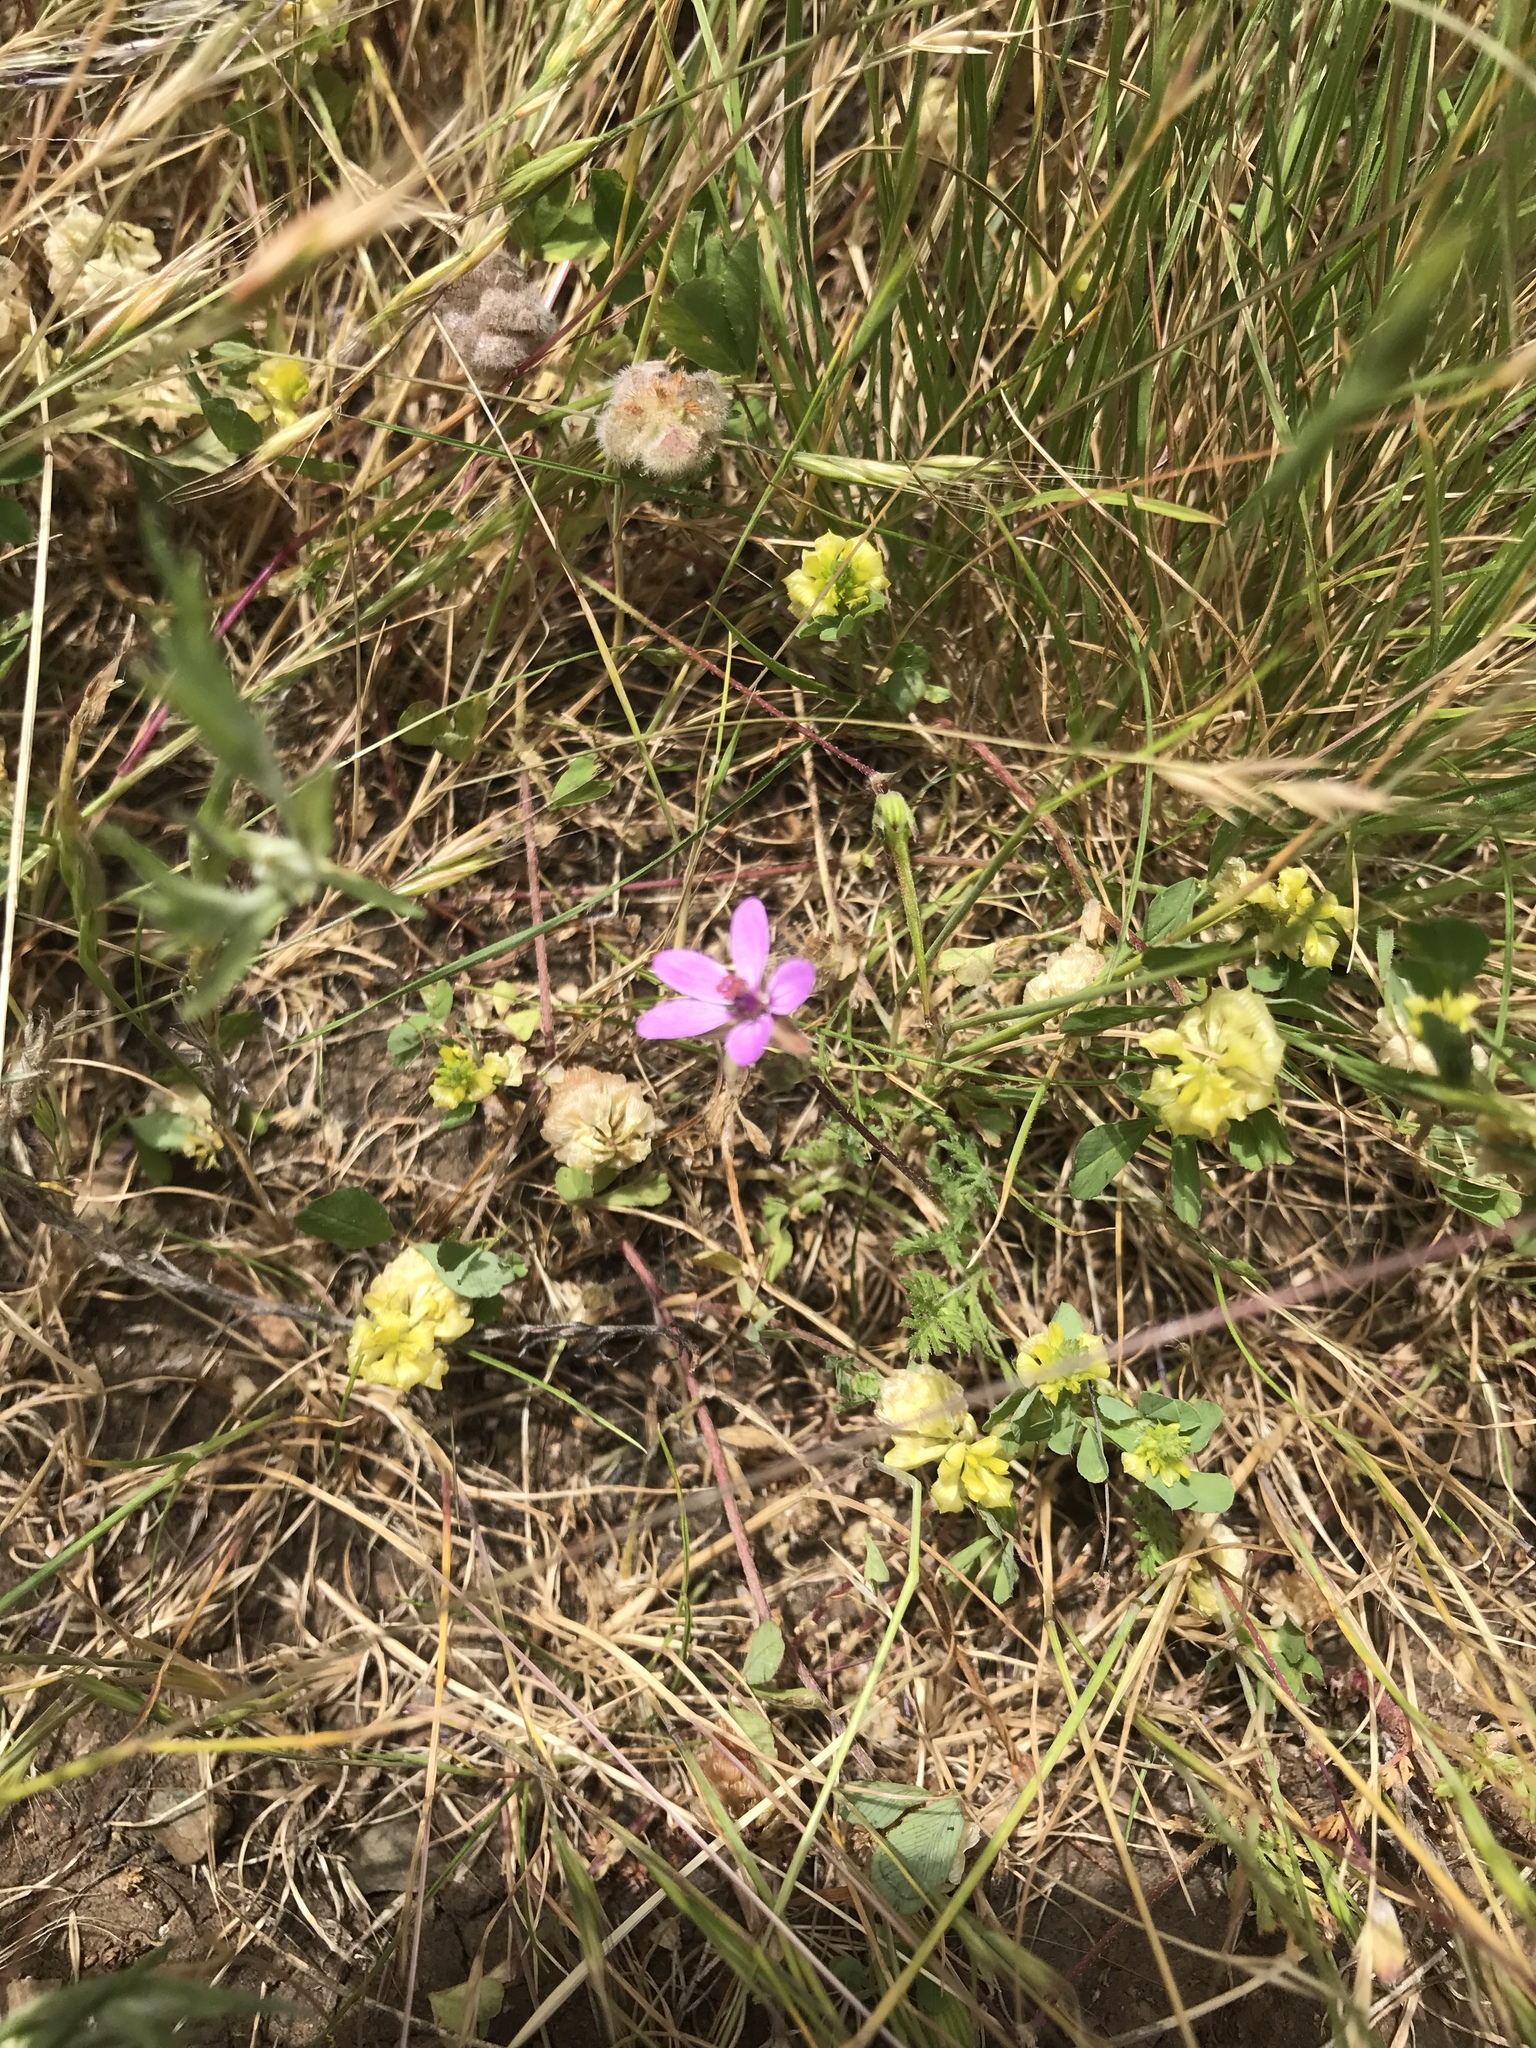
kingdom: Plantae
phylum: Tracheophyta
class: Magnoliopsida
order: Geraniales
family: Geraniaceae
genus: Erodium
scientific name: Erodium cicutarium
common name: Common stork's-bill
